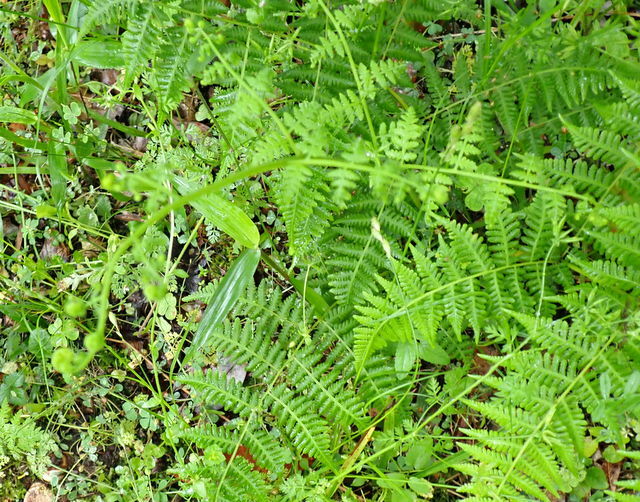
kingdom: Plantae
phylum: Tracheophyta
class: Polypodiopsida
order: Polypodiales
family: Thelypteridaceae
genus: Macrothelypteris
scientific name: Macrothelypteris torresiana
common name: Swordfern
